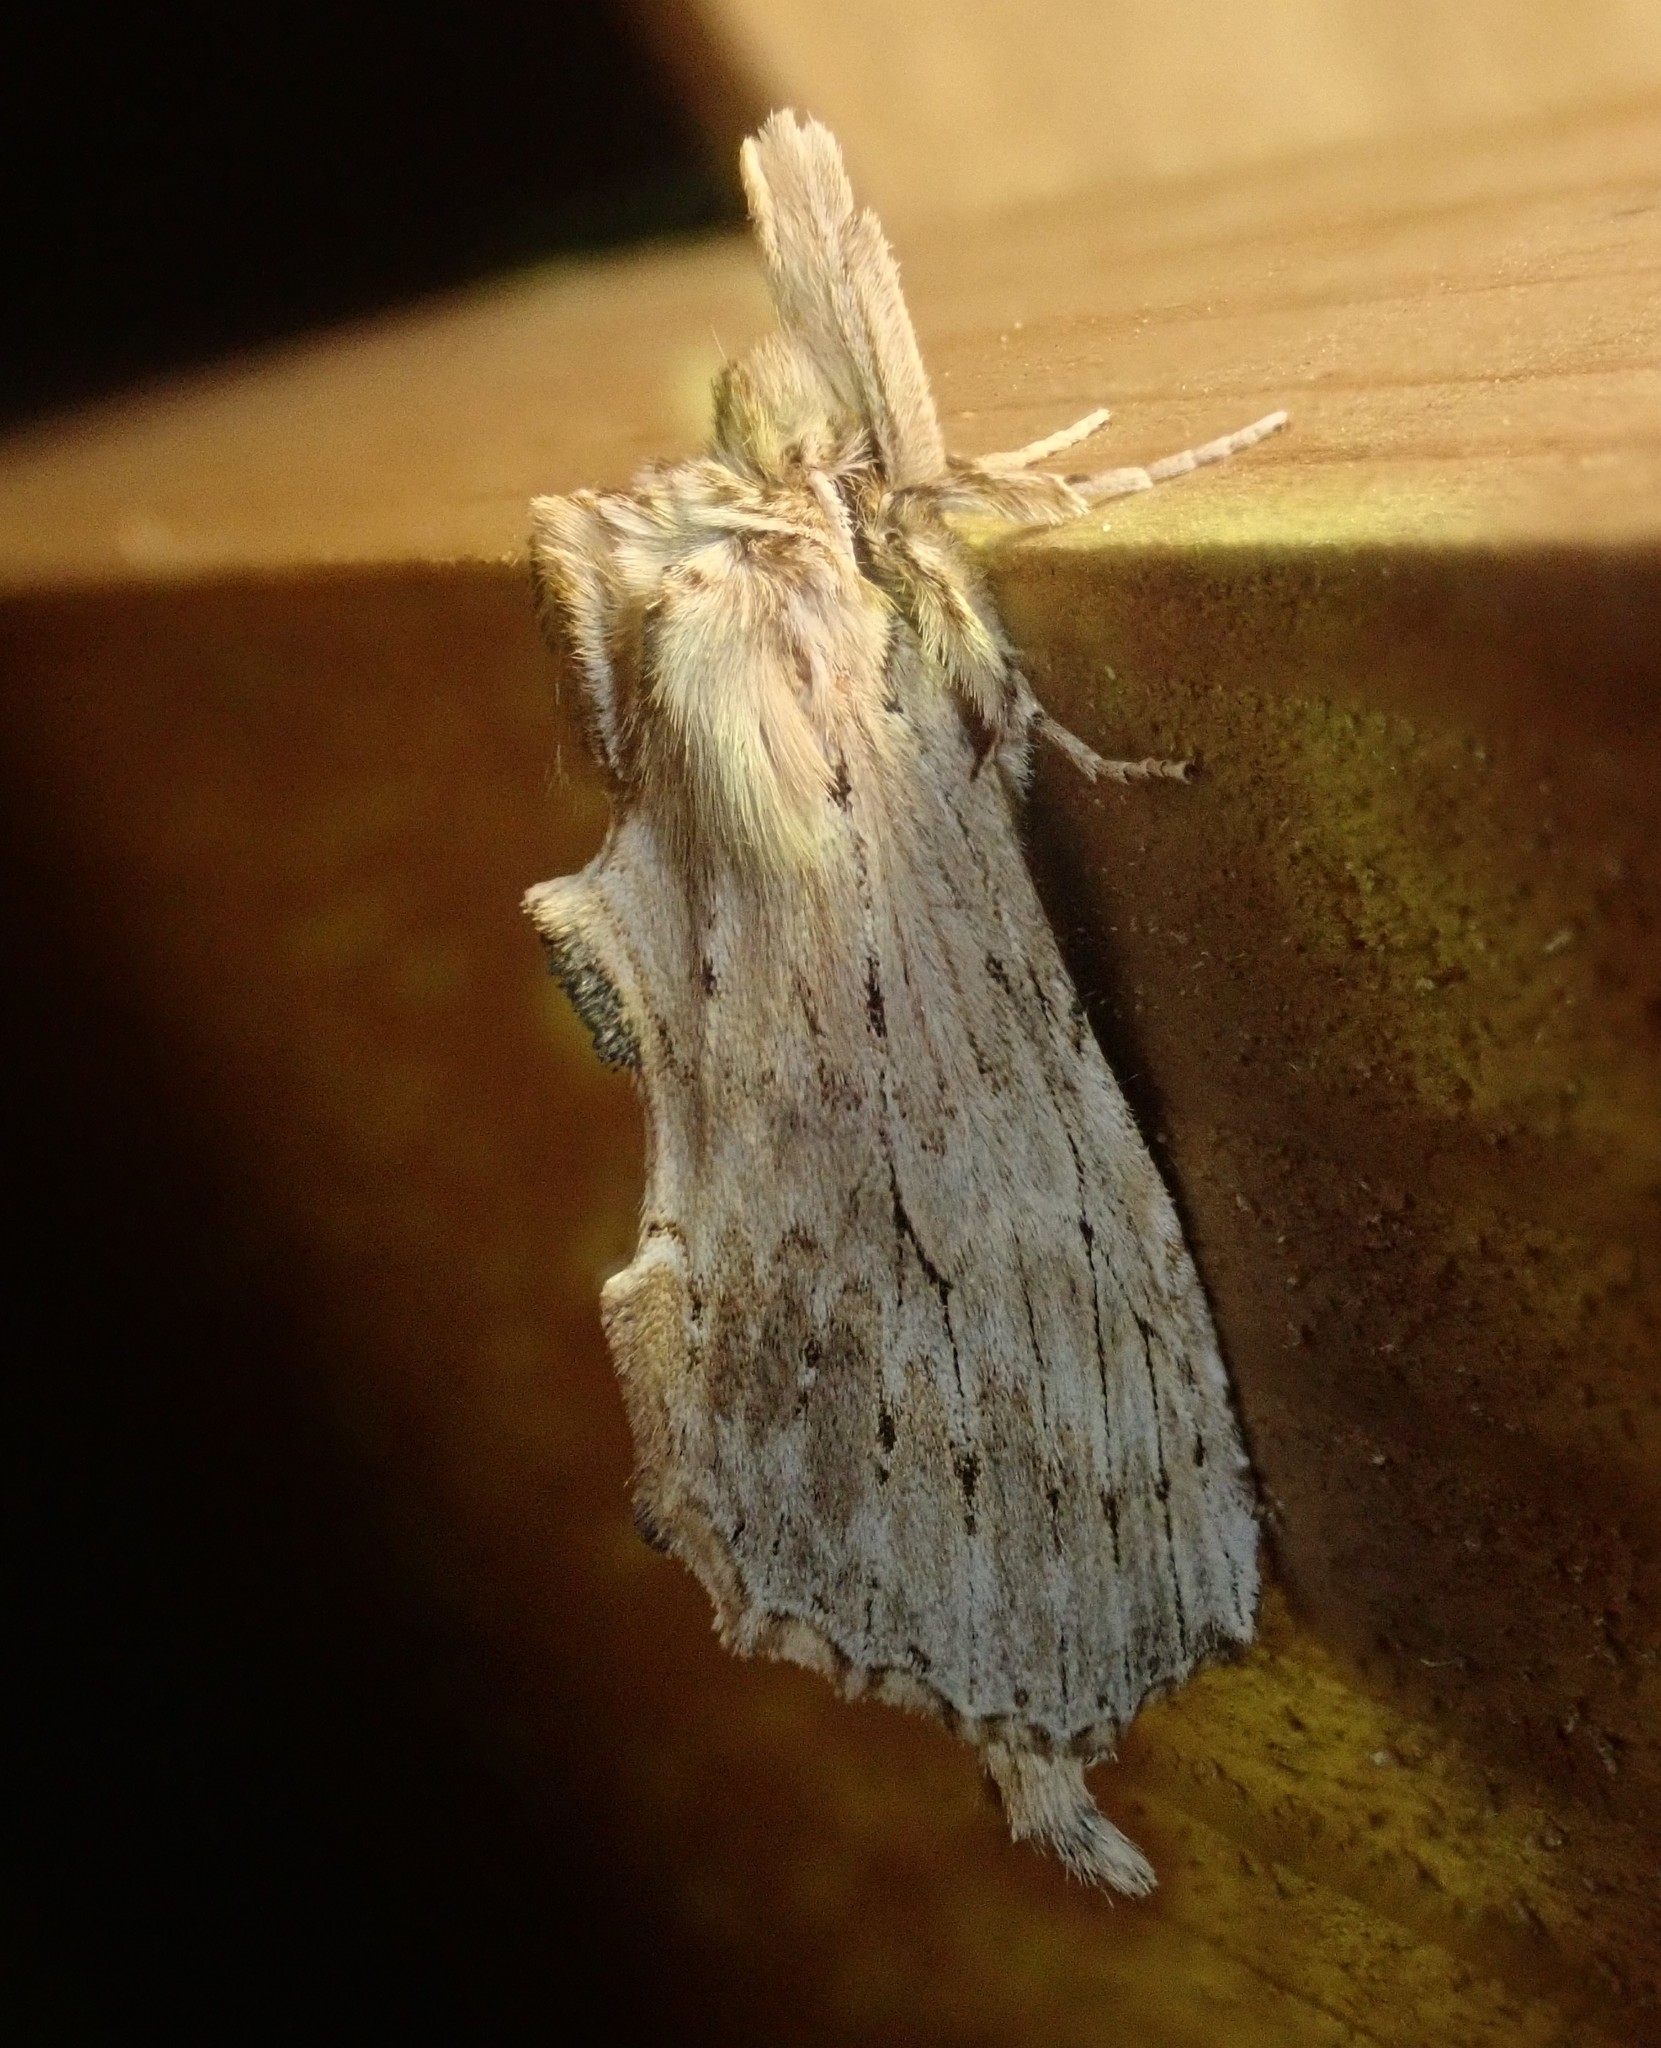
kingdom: Animalia
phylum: Arthropoda
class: Insecta
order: Lepidoptera
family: Notodontidae
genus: Pterostoma
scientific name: Pterostoma palpina
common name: Pale prominent
